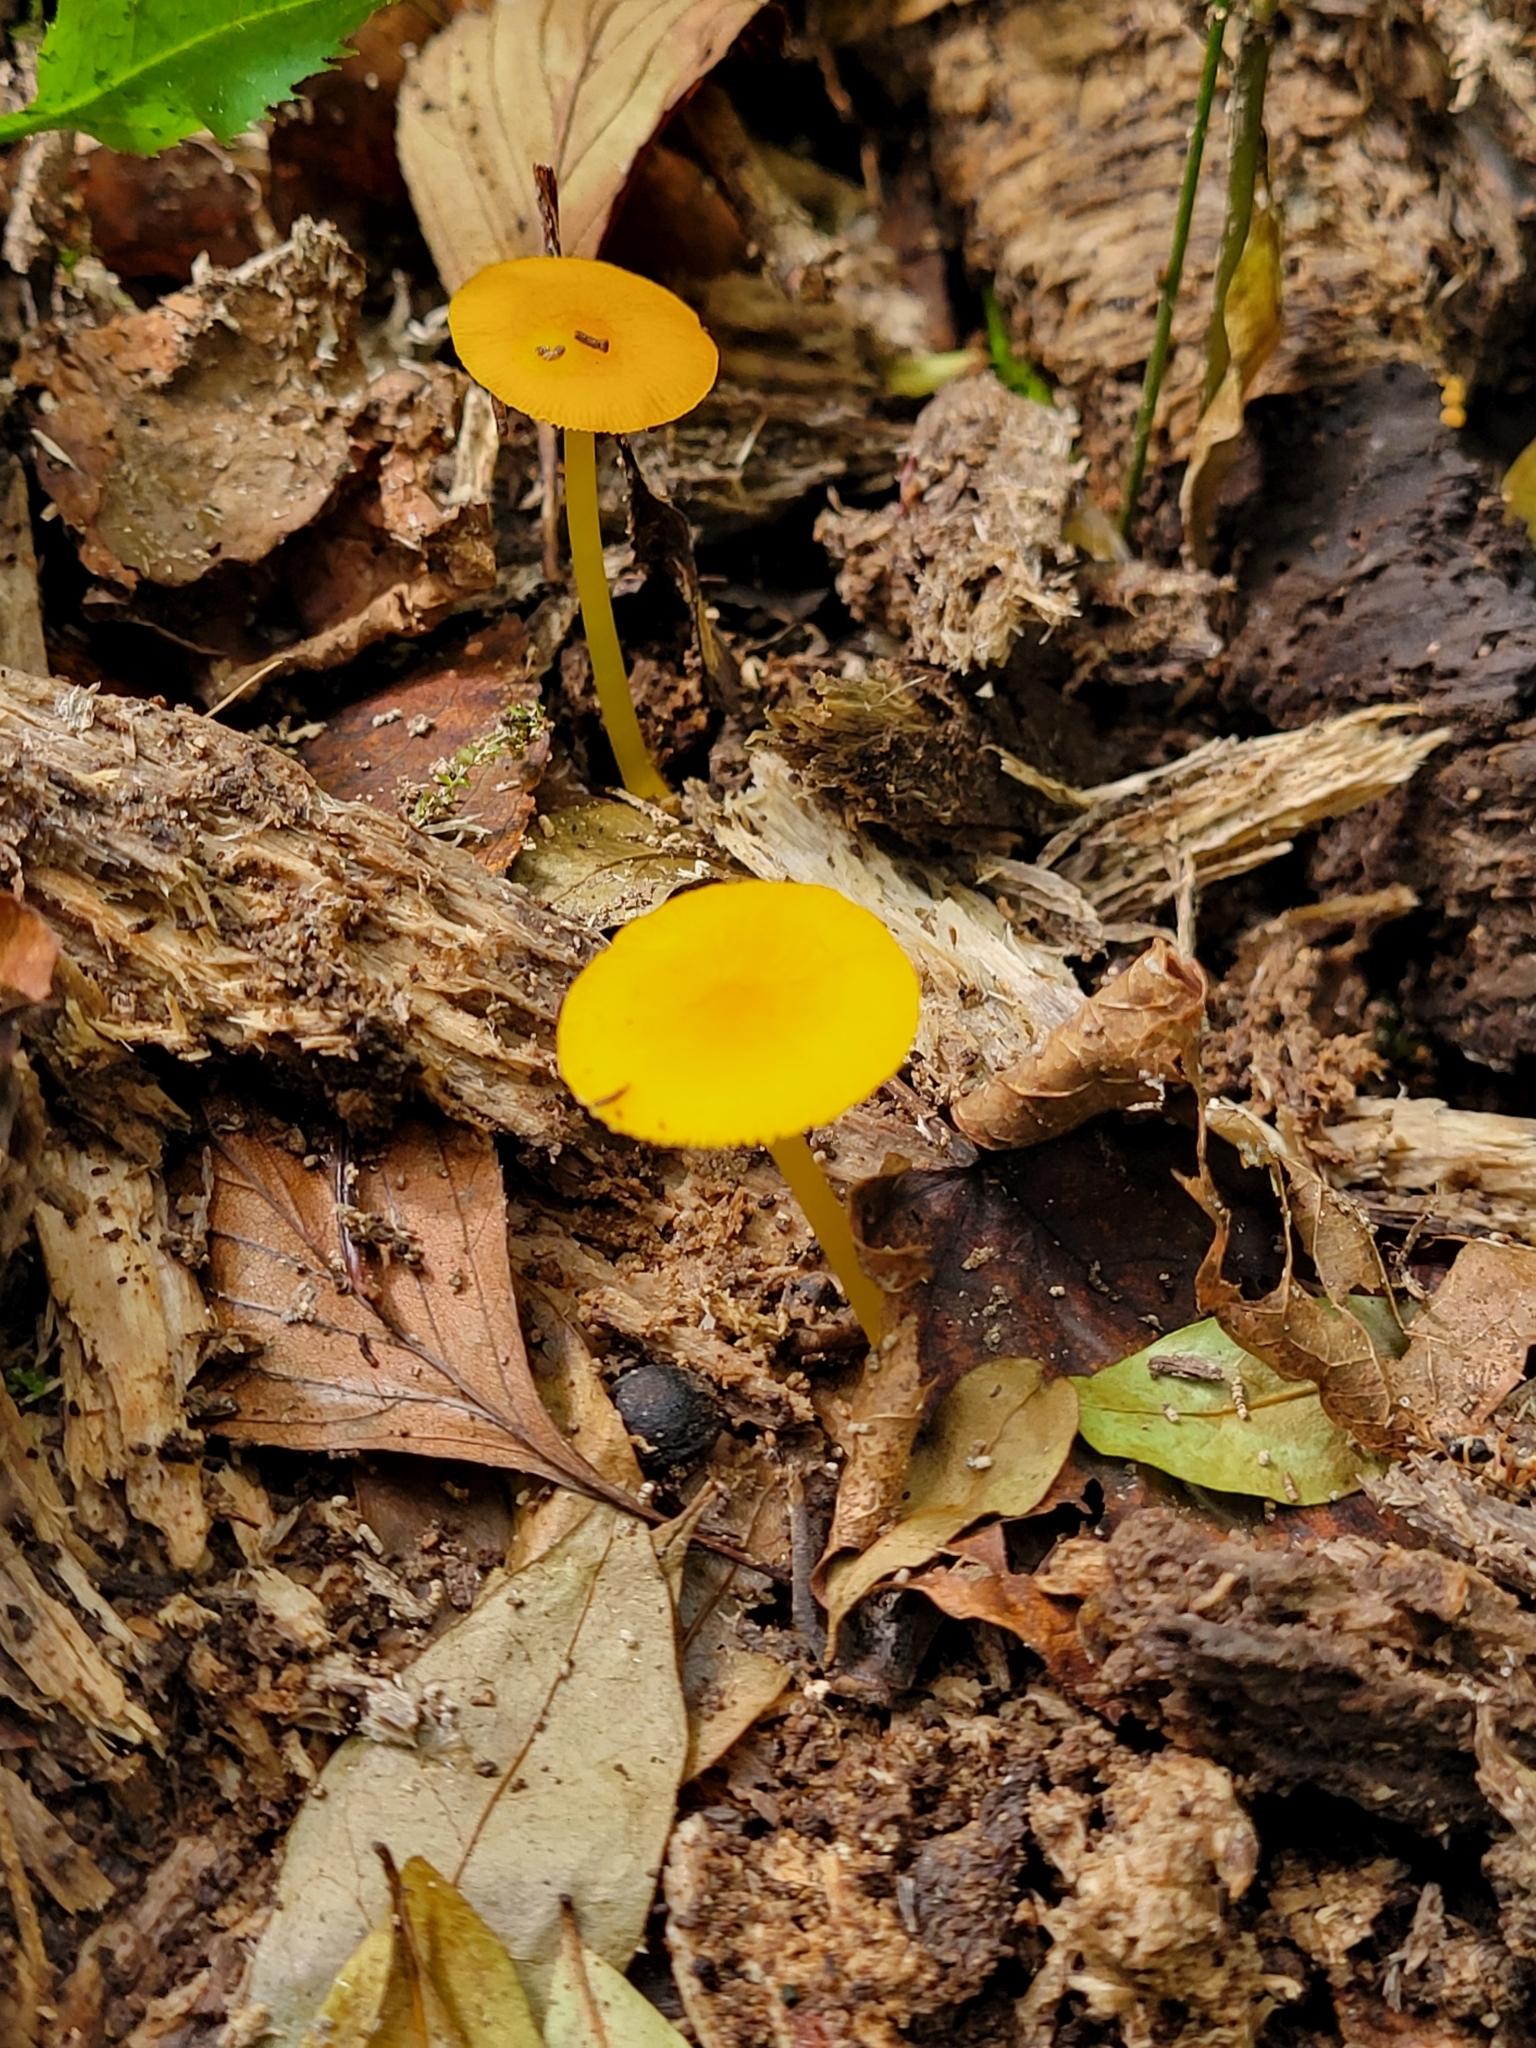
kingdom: Fungi
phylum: Basidiomycota
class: Agaricomycetes
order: Agaricales
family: Pluteaceae
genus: Pluteus
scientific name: Pluteus chrysophlebius
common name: Yellow deer mushroom
